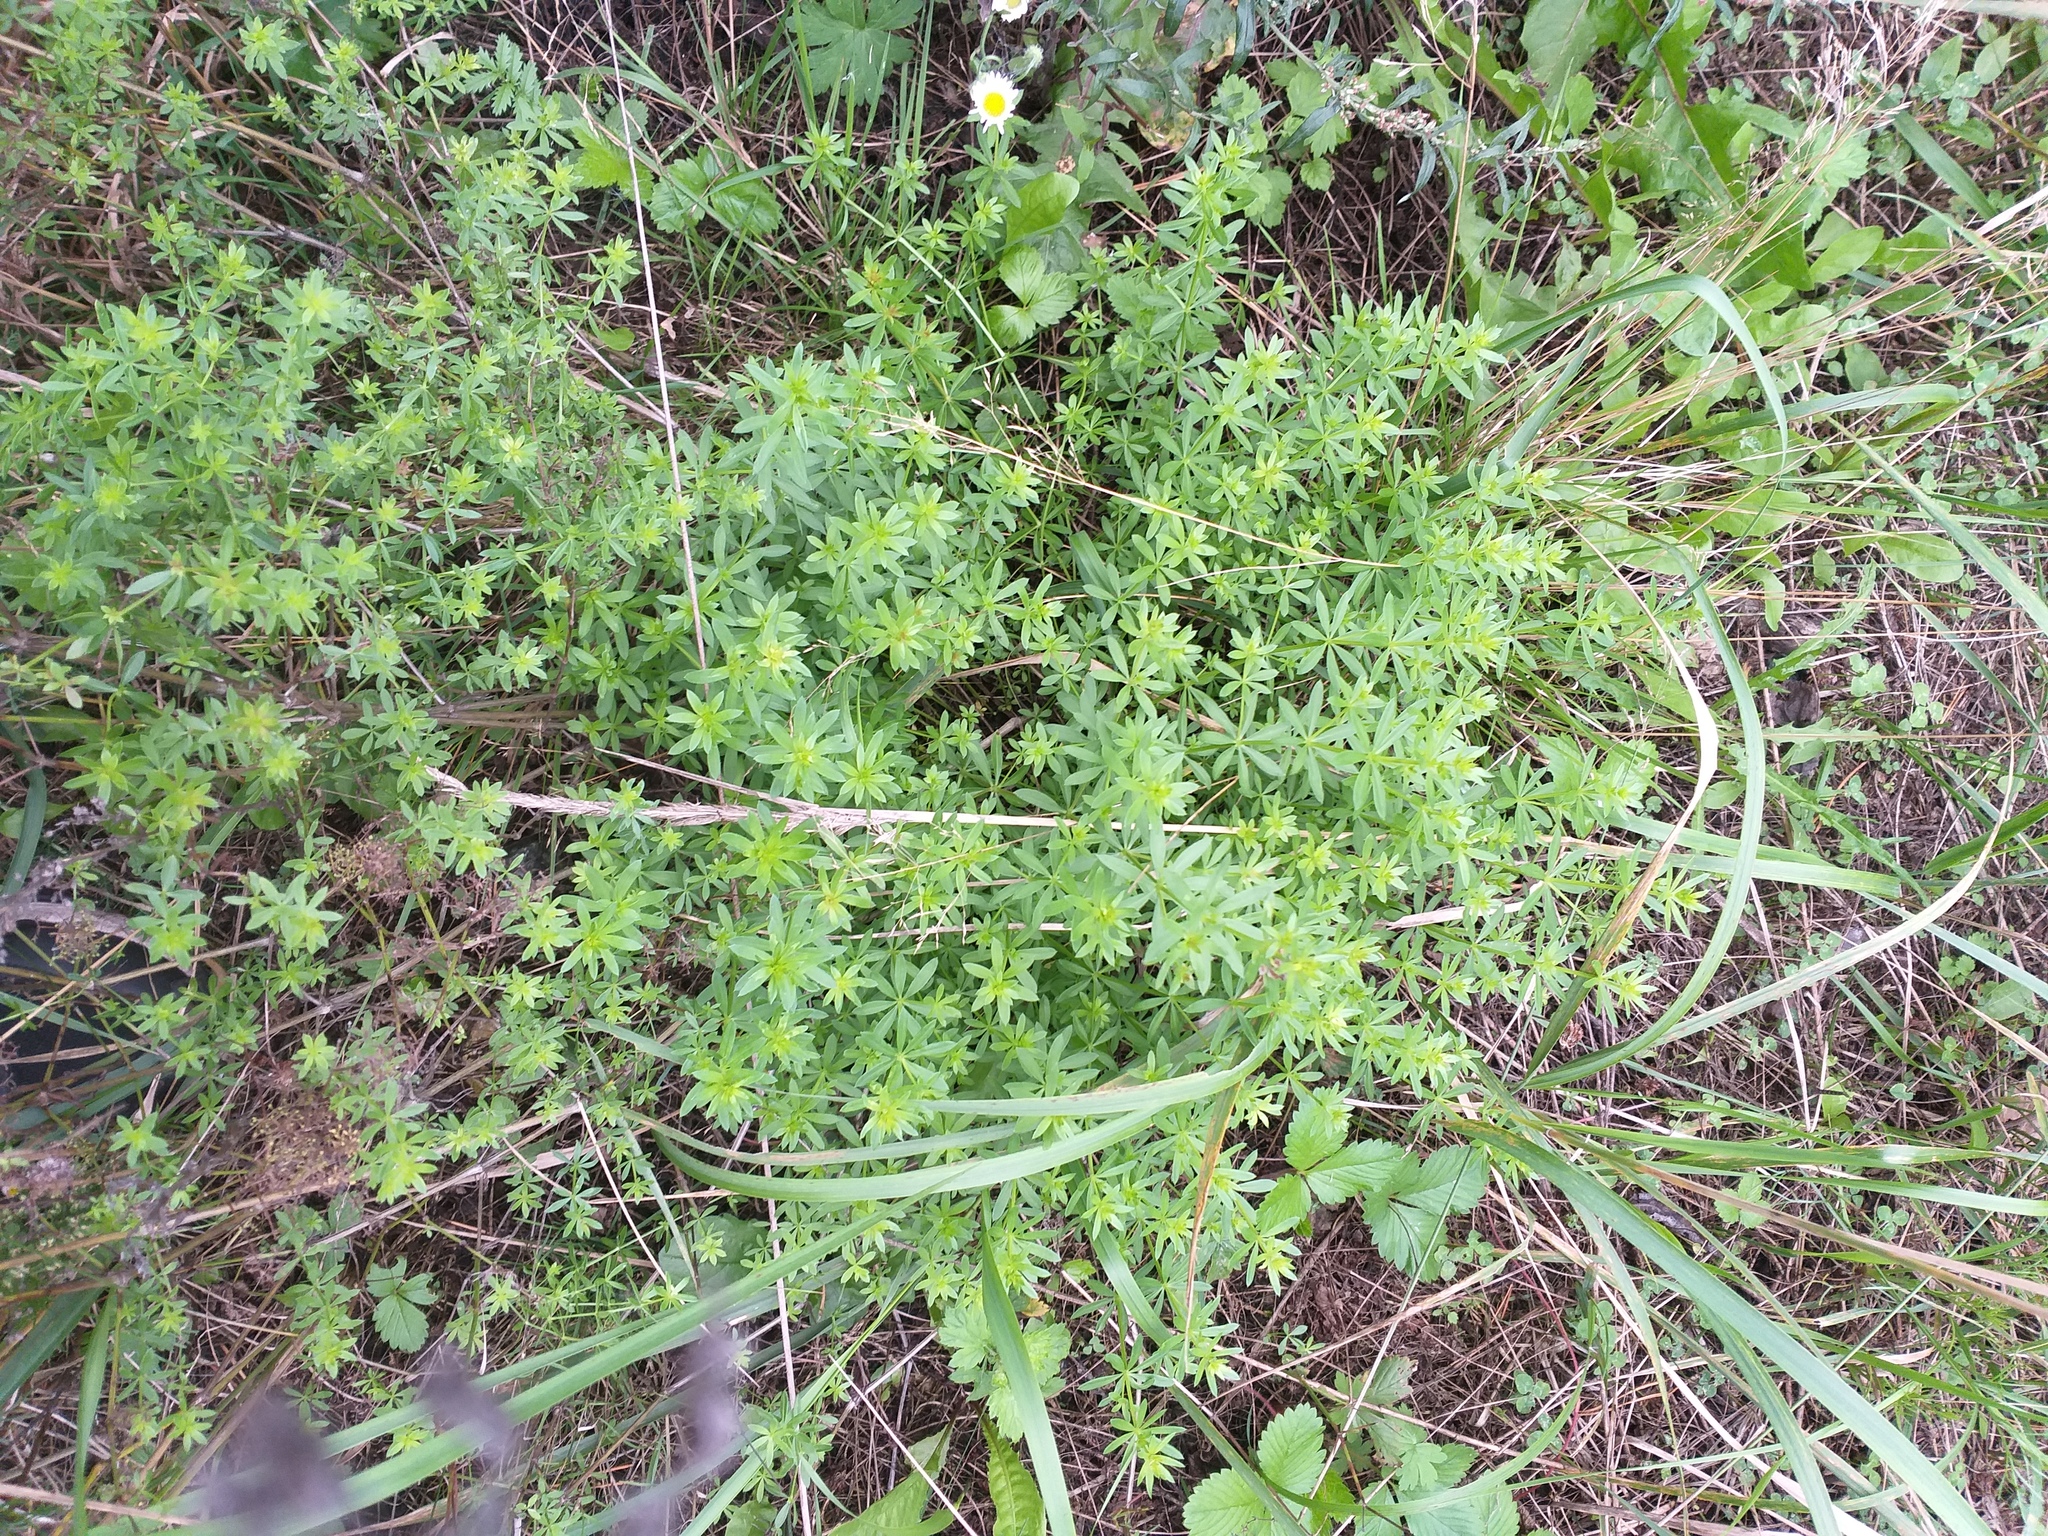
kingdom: Plantae
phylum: Tracheophyta
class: Magnoliopsida
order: Gentianales
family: Rubiaceae
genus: Galium
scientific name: Galium mollugo
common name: Hedge bedstraw
